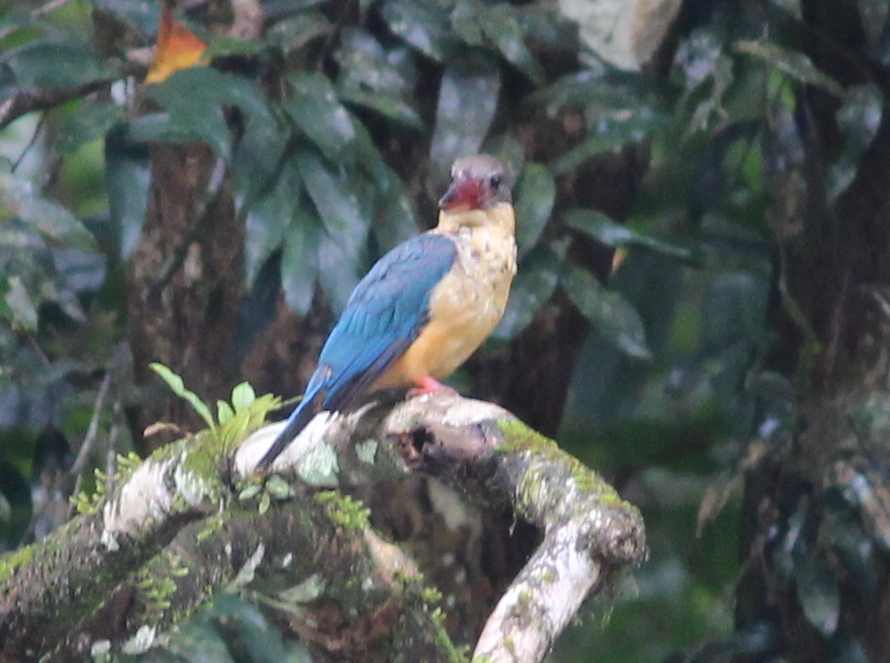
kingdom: Animalia
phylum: Chordata
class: Aves
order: Coraciiformes
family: Alcedinidae
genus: Pelargopsis
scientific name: Pelargopsis capensis
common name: Stork-billed kingfisher
